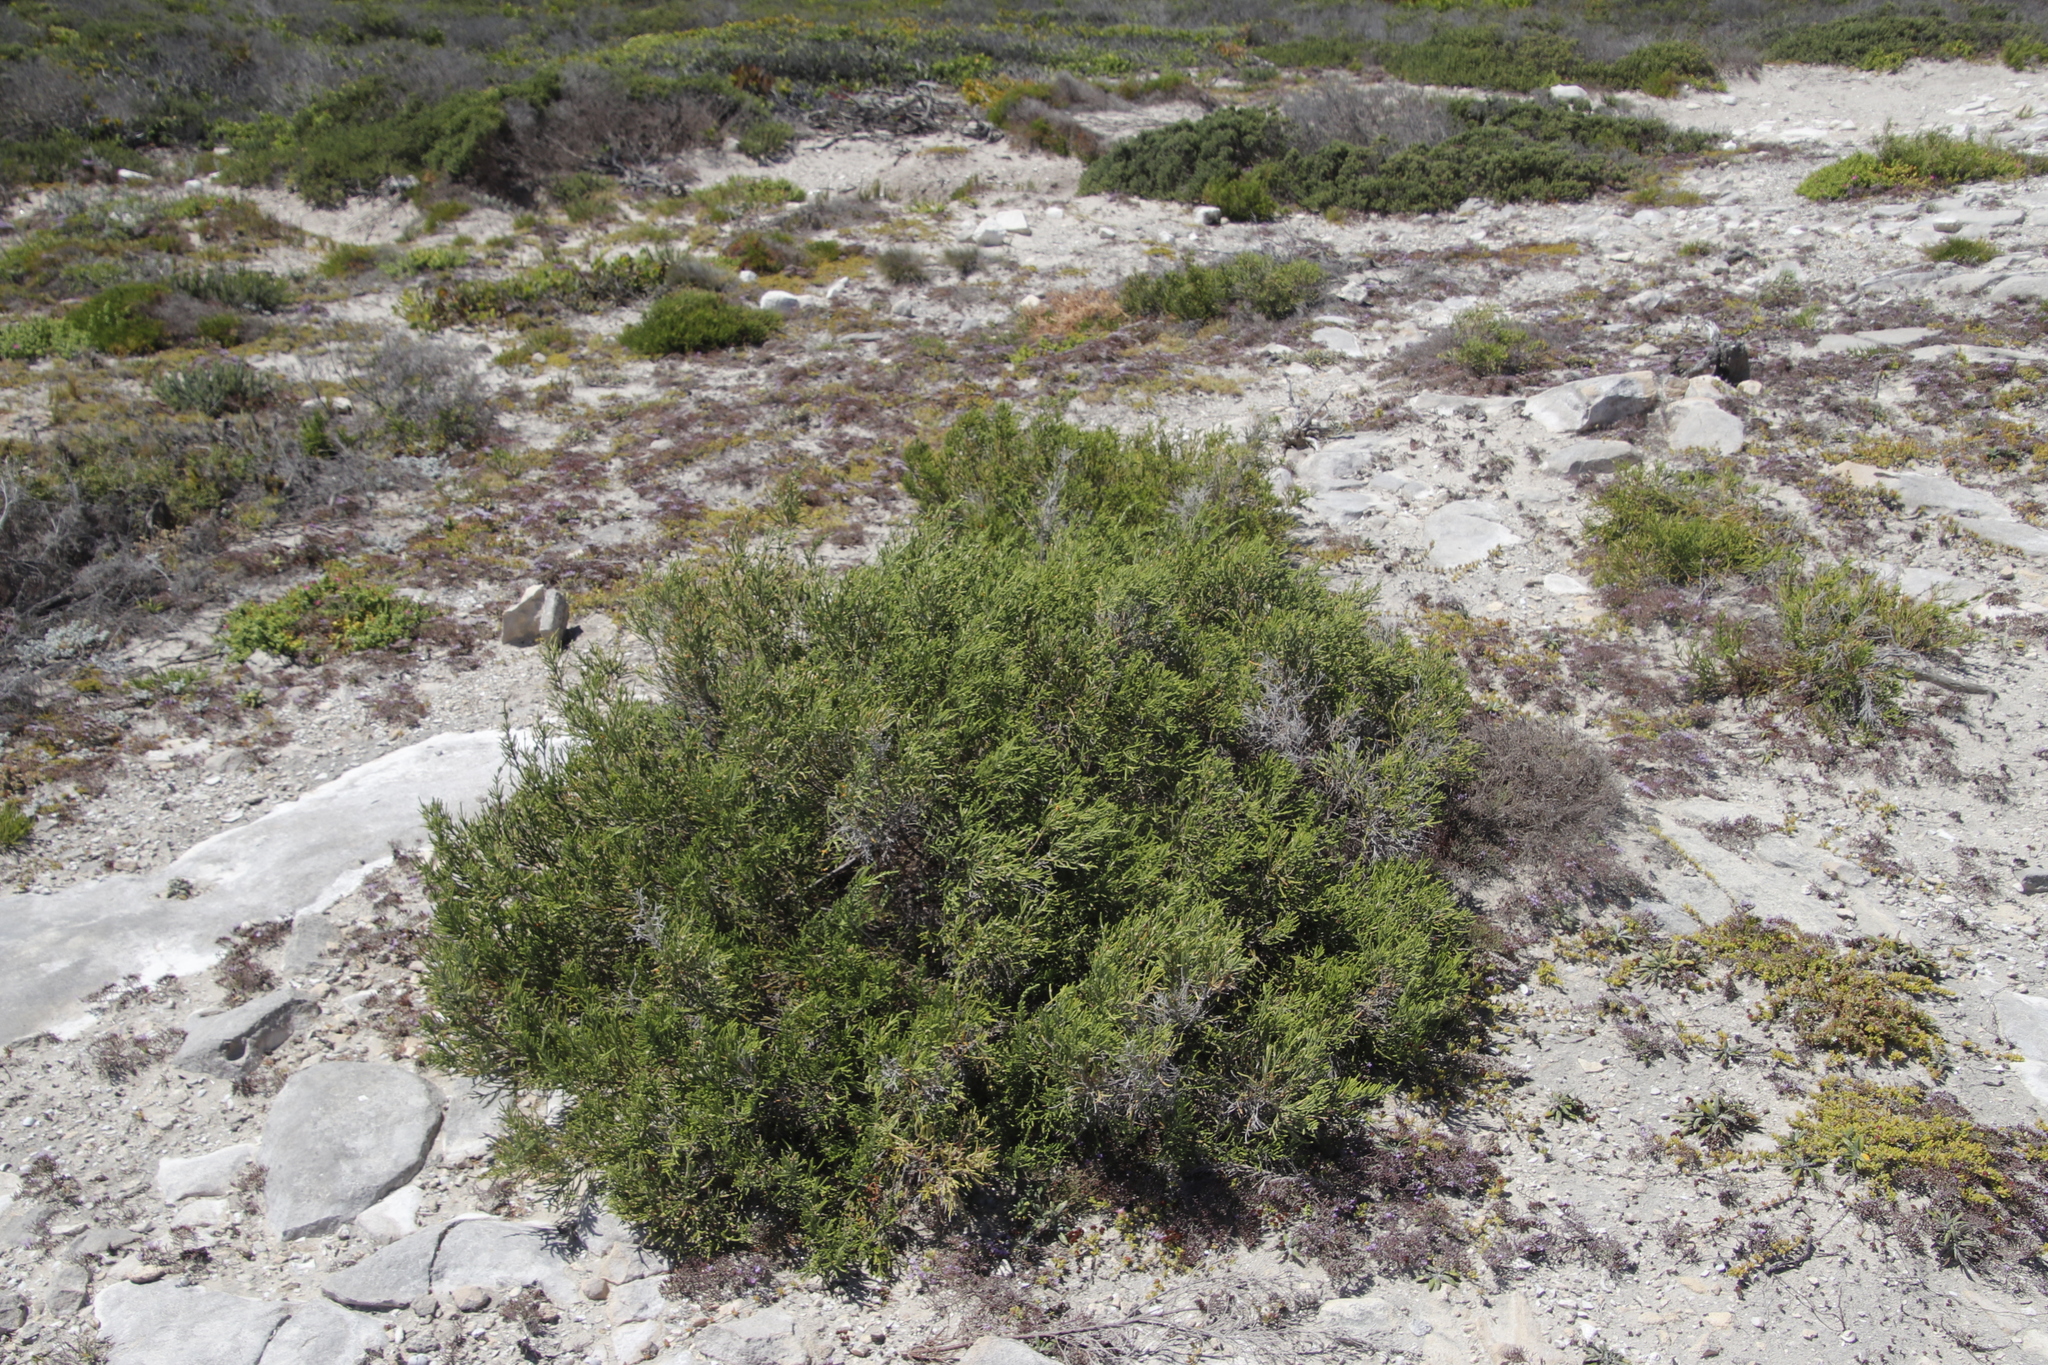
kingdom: Plantae
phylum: Tracheophyta
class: Magnoliopsida
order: Malvales
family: Thymelaeaceae
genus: Passerina
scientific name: Passerina rigida
